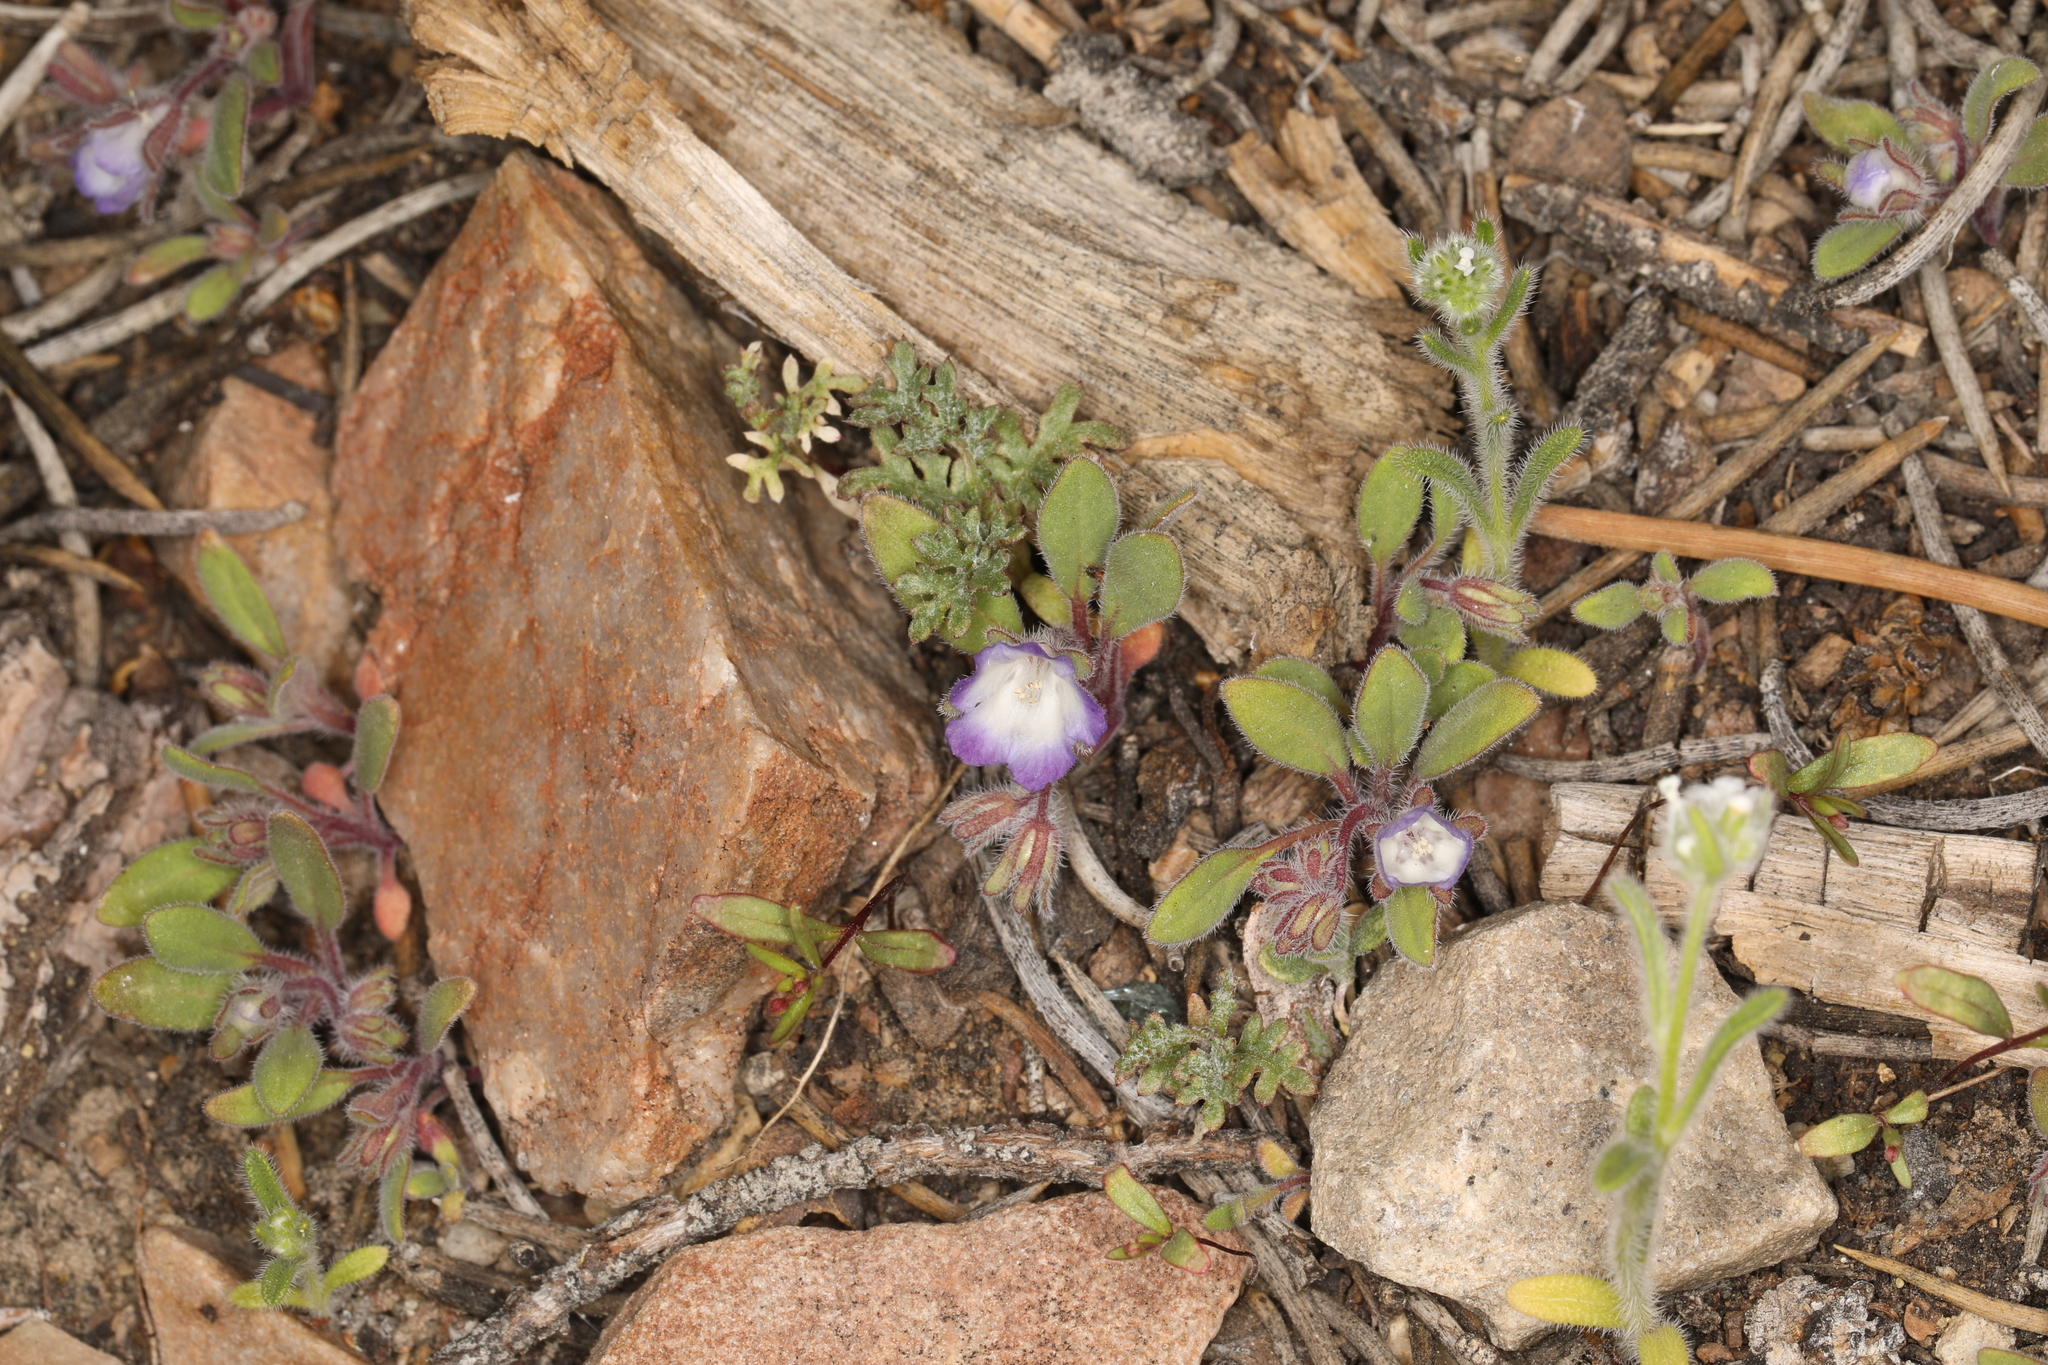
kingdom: Plantae
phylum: Tracheophyta
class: Magnoliopsida
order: Boraginales
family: Hydrophyllaceae
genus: Phacelia
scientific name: Phacelia curvipes
